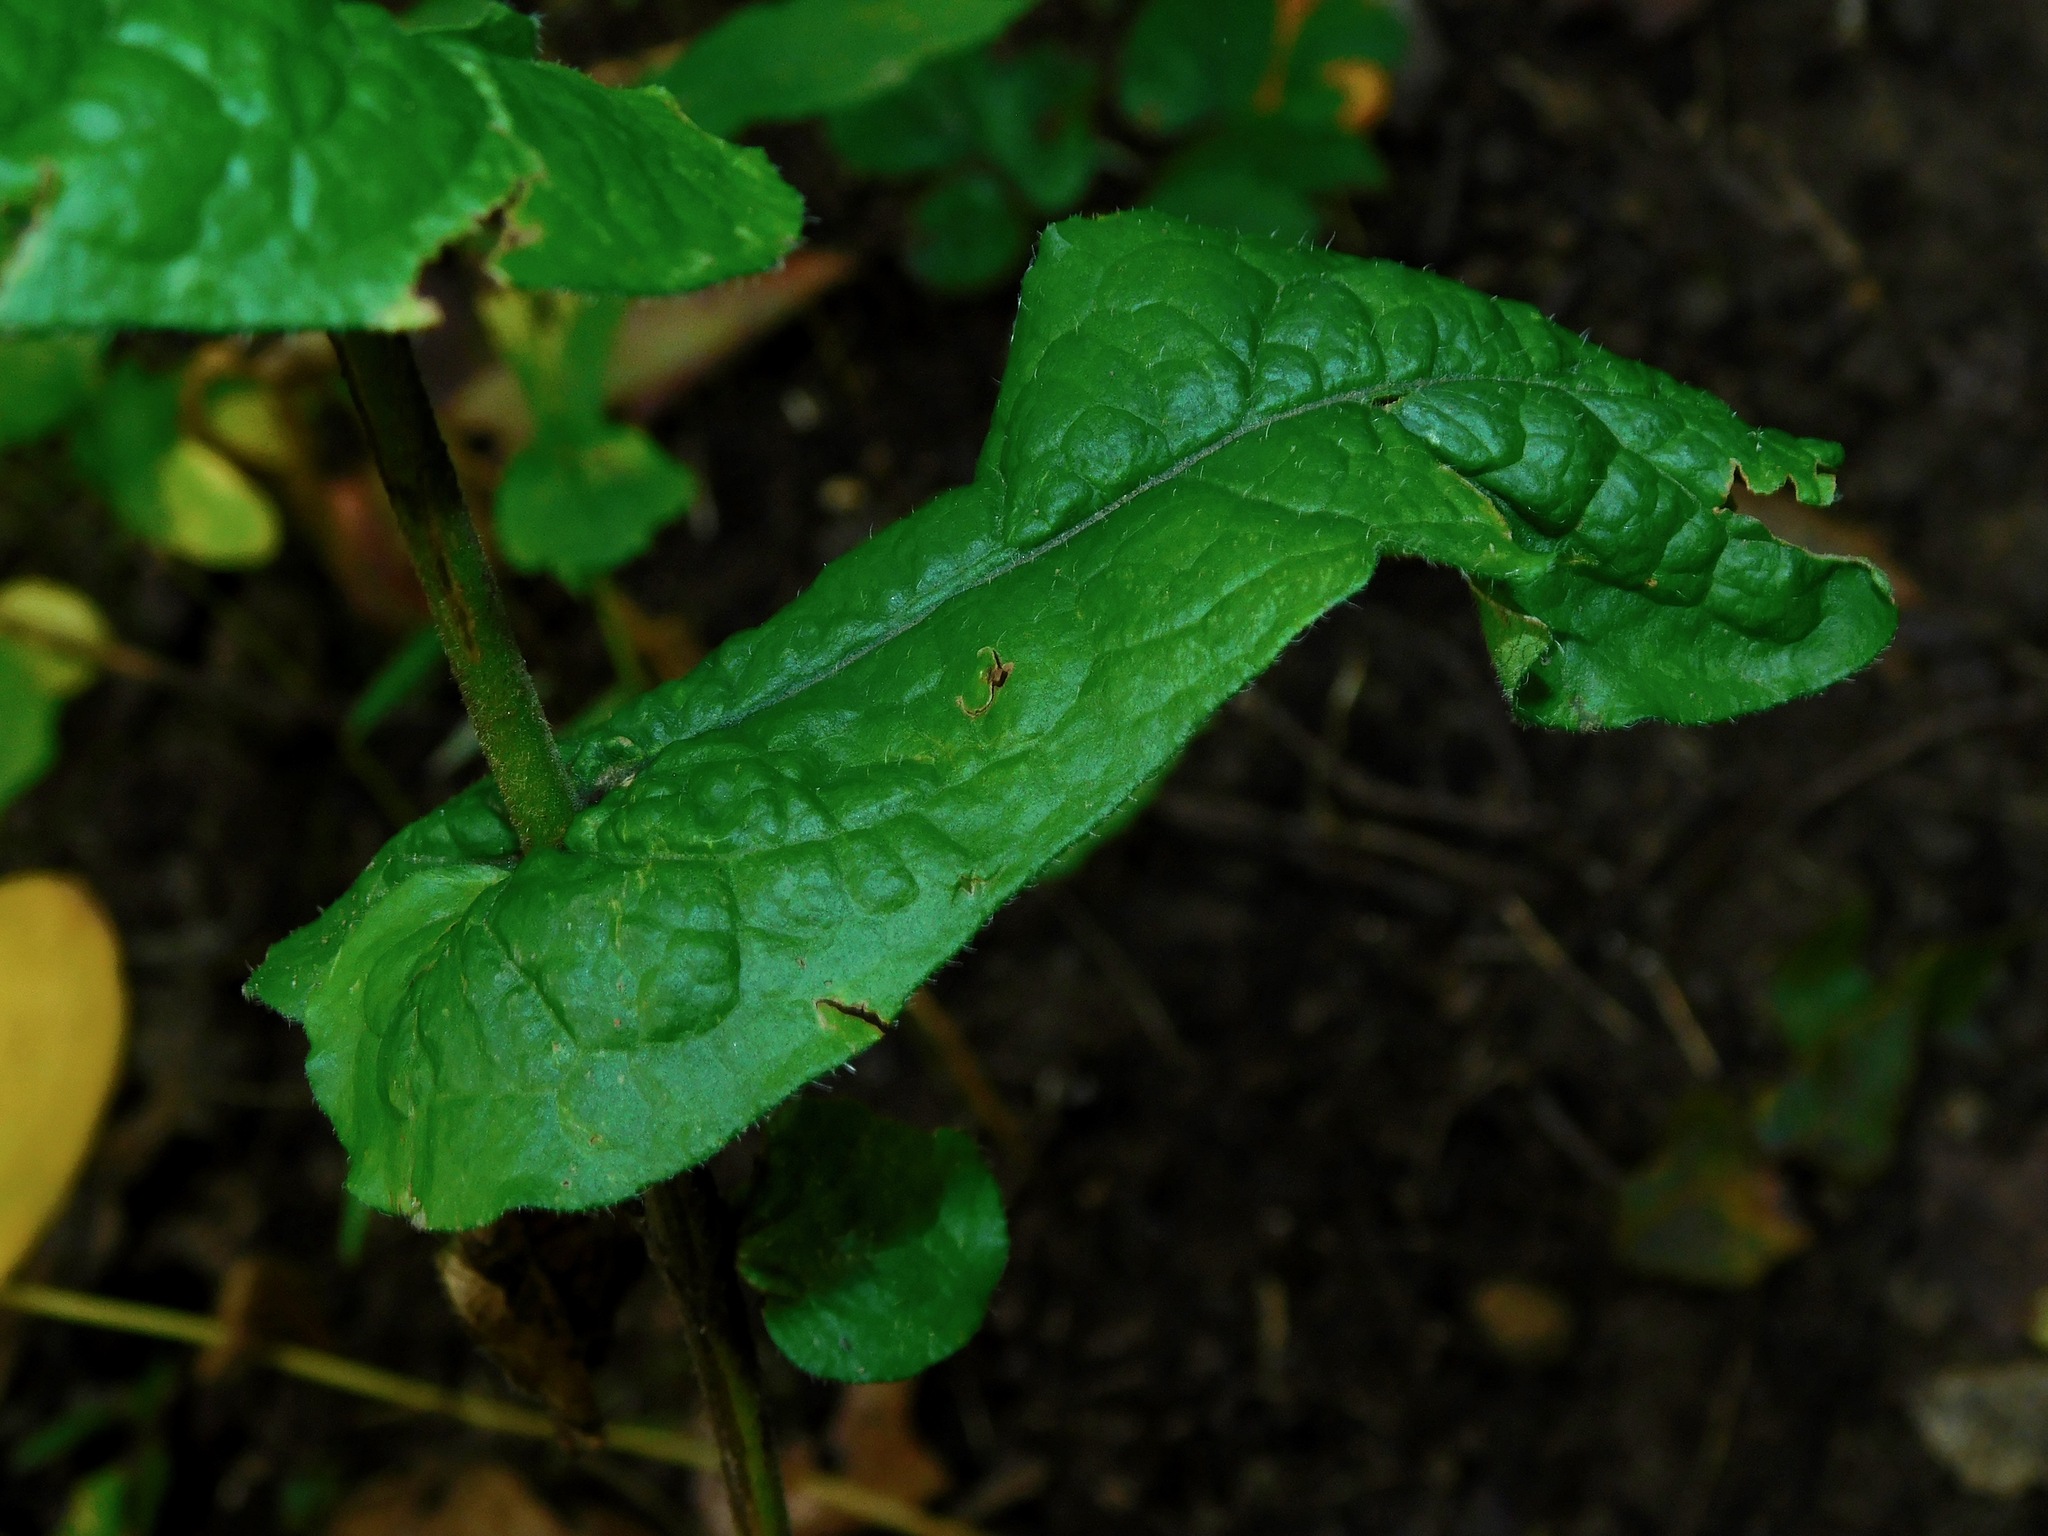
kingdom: Plantae
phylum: Tracheophyta
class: Magnoliopsida
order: Asterales
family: Asteraceae
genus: Symphyotrichum
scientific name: Symphyotrichum phlogifolium
